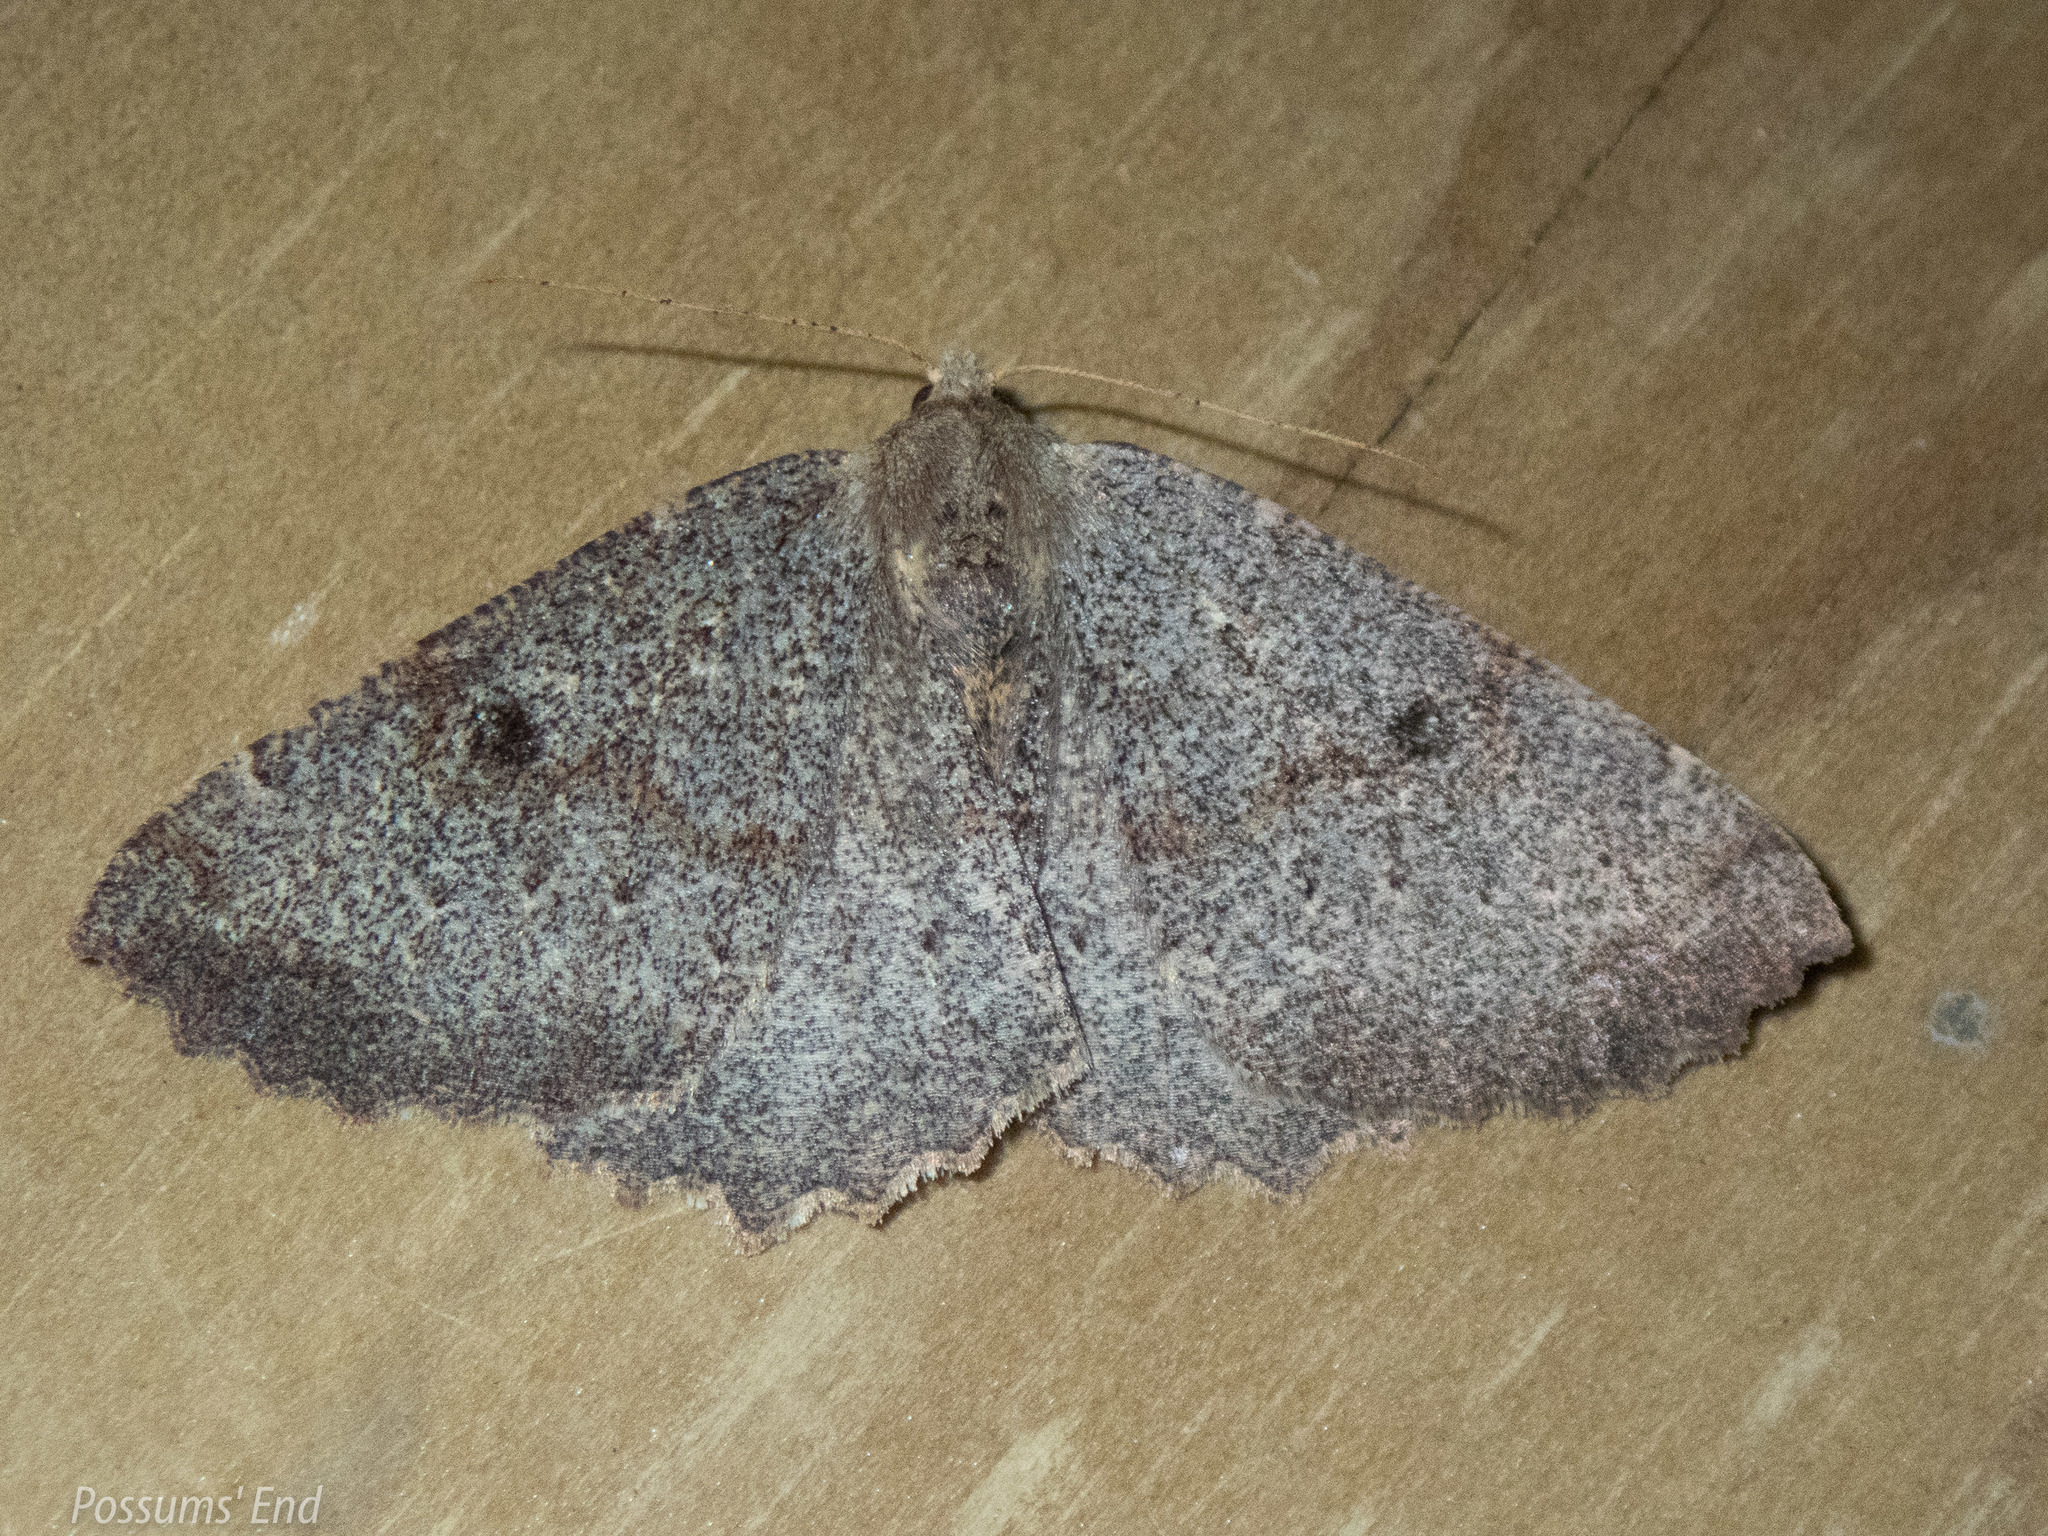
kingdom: Animalia
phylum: Arthropoda
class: Insecta
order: Lepidoptera
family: Geometridae
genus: Cleora
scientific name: Cleora scriptaria
